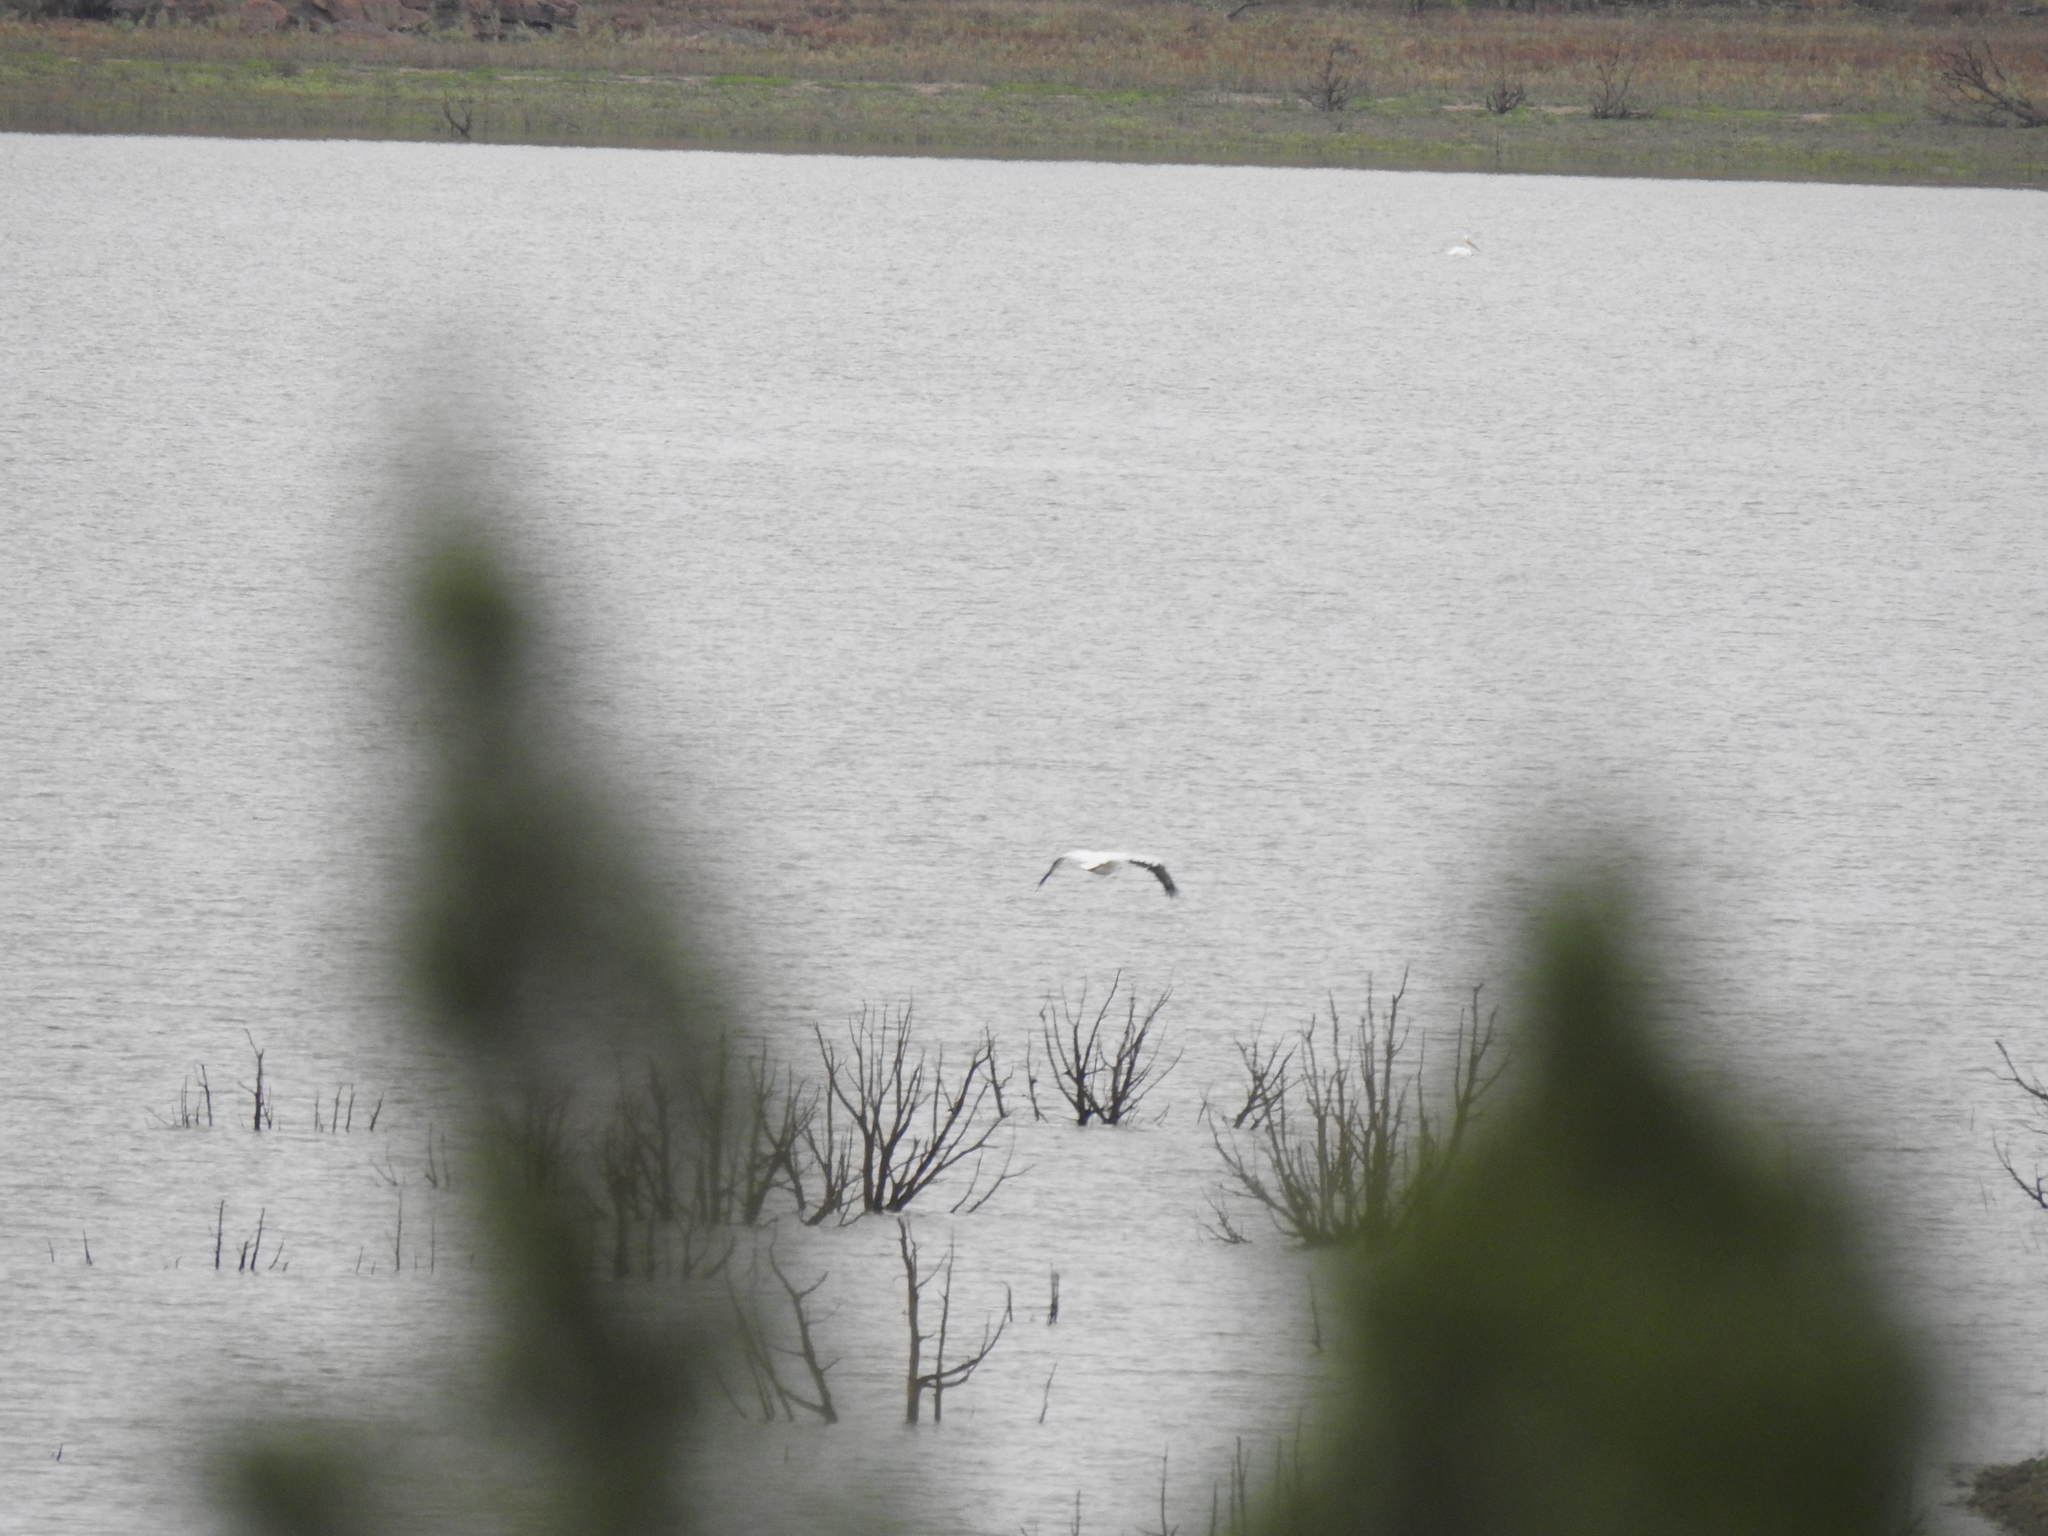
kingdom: Animalia
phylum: Chordata
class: Aves
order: Pelecaniformes
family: Pelecanidae
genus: Pelecanus
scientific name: Pelecanus erythrorhynchos
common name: American white pelican
